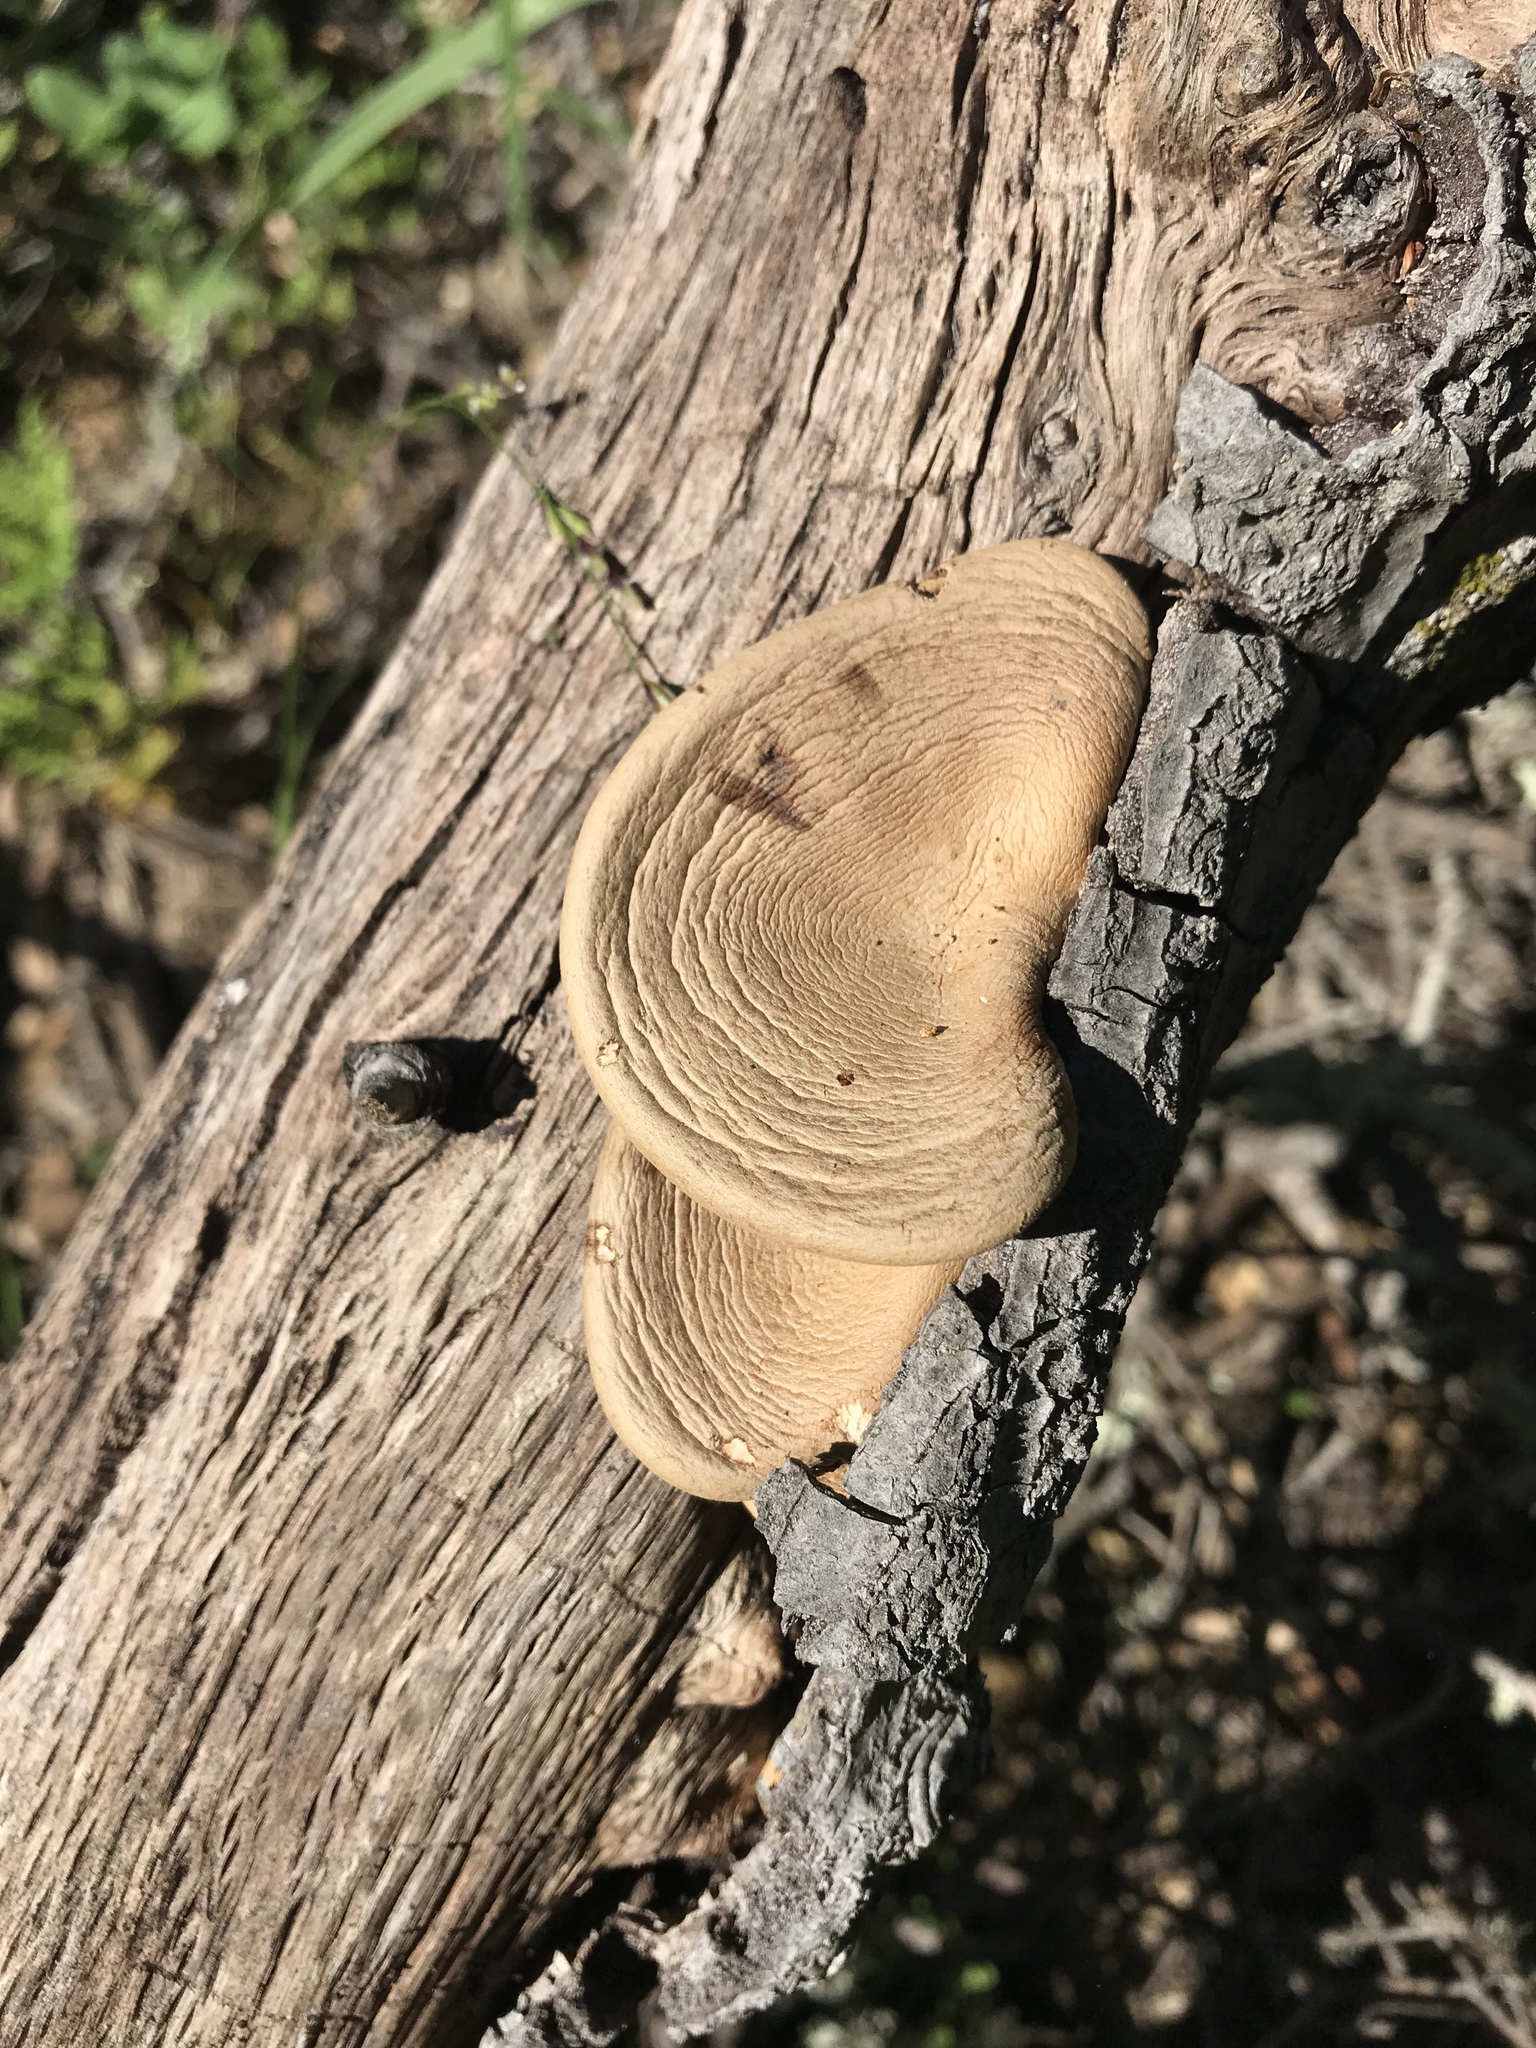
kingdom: Fungi
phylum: Basidiomycota
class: Agaricomycetes
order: Polyporales
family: Panaceae
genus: Panus
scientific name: Panus conchatus
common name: Lilac oysterling
